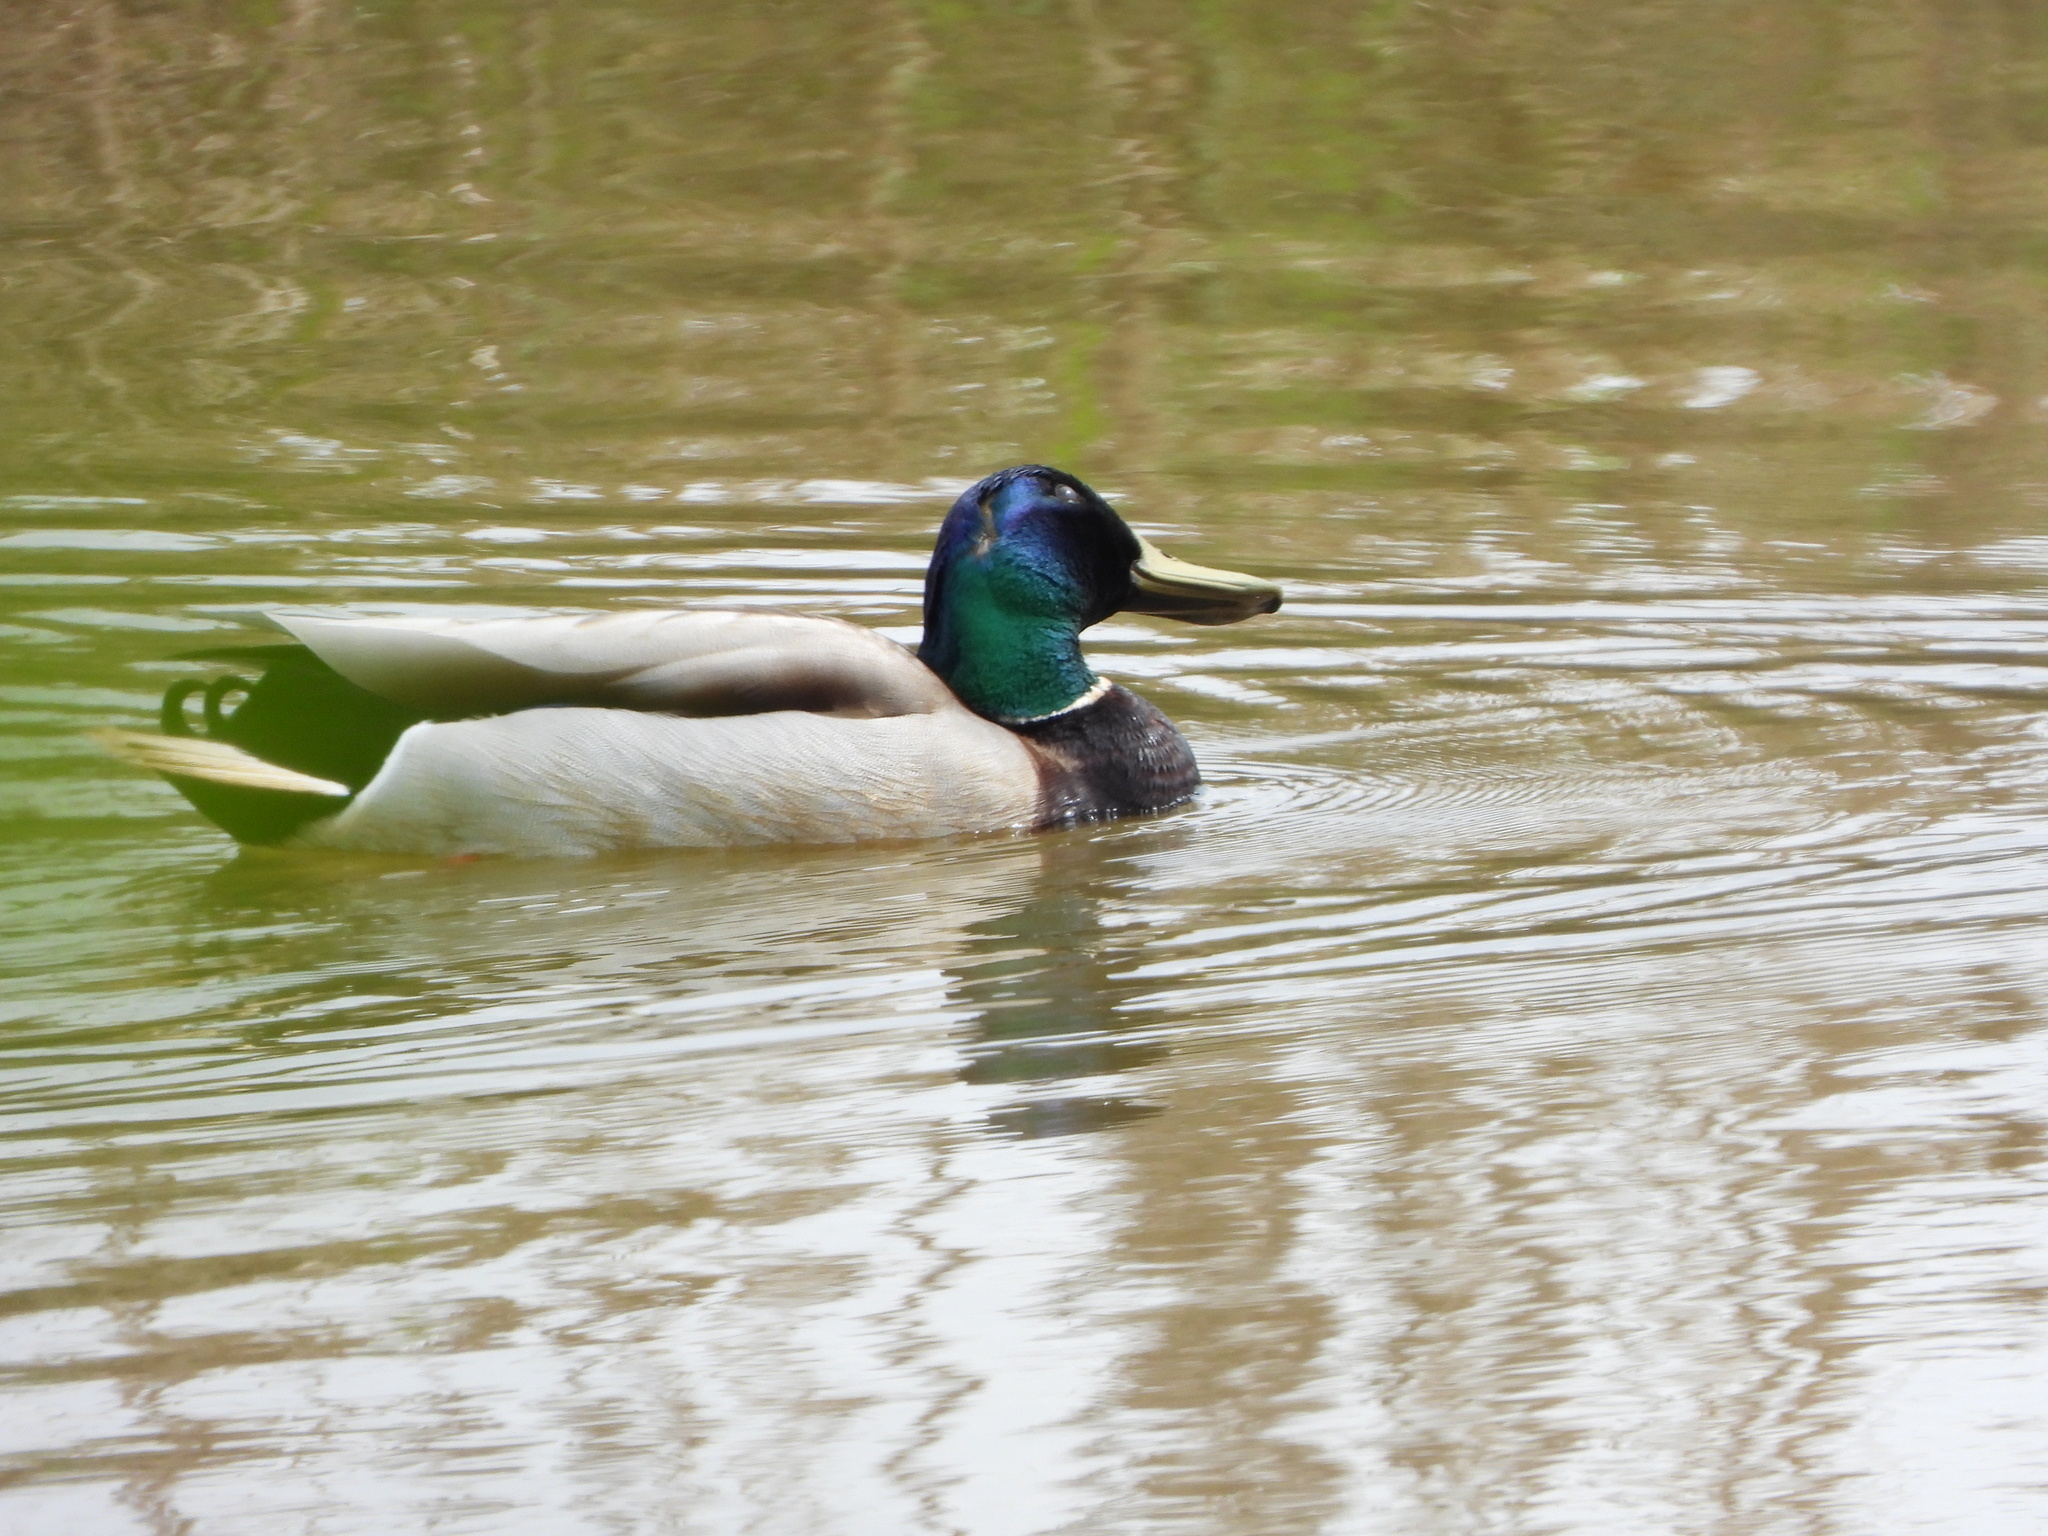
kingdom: Animalia
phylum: Chordata
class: Aves
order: Anseriformes
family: Anatidae
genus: Anas
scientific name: Anas platyrhynchos
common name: Mallard
